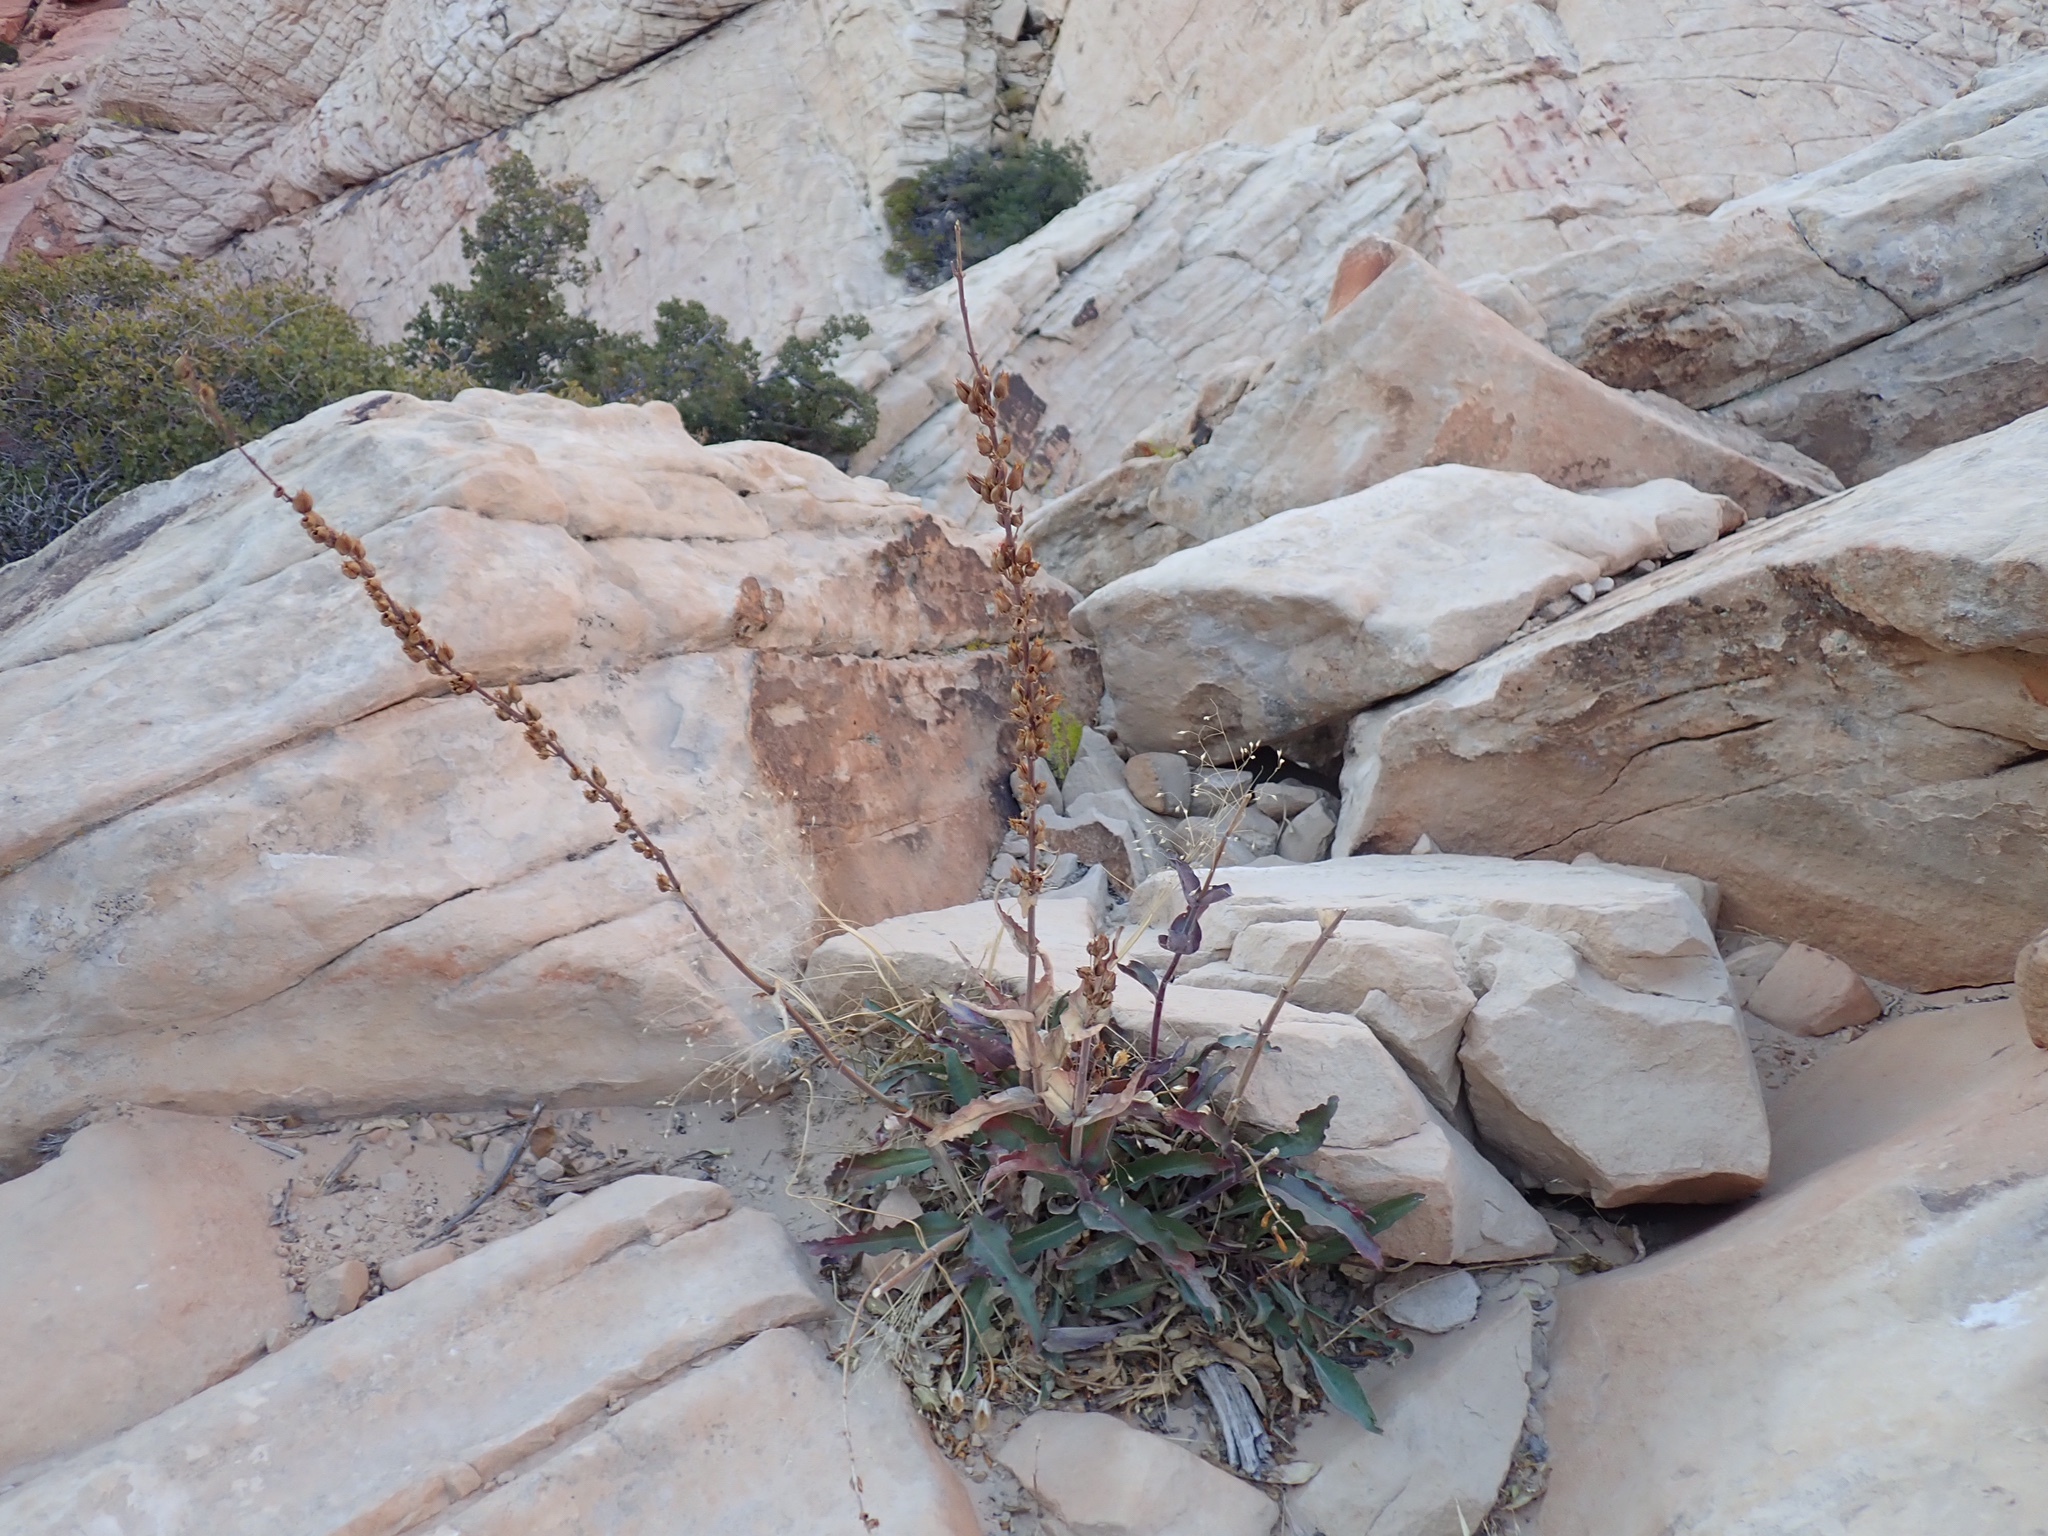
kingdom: Plantae
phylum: Tracheophyta
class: Magnoliopsida
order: Lamiales
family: Plantaginaceae
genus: Penstemon
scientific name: Penstemon eatonii
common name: Eaton's penstemon
